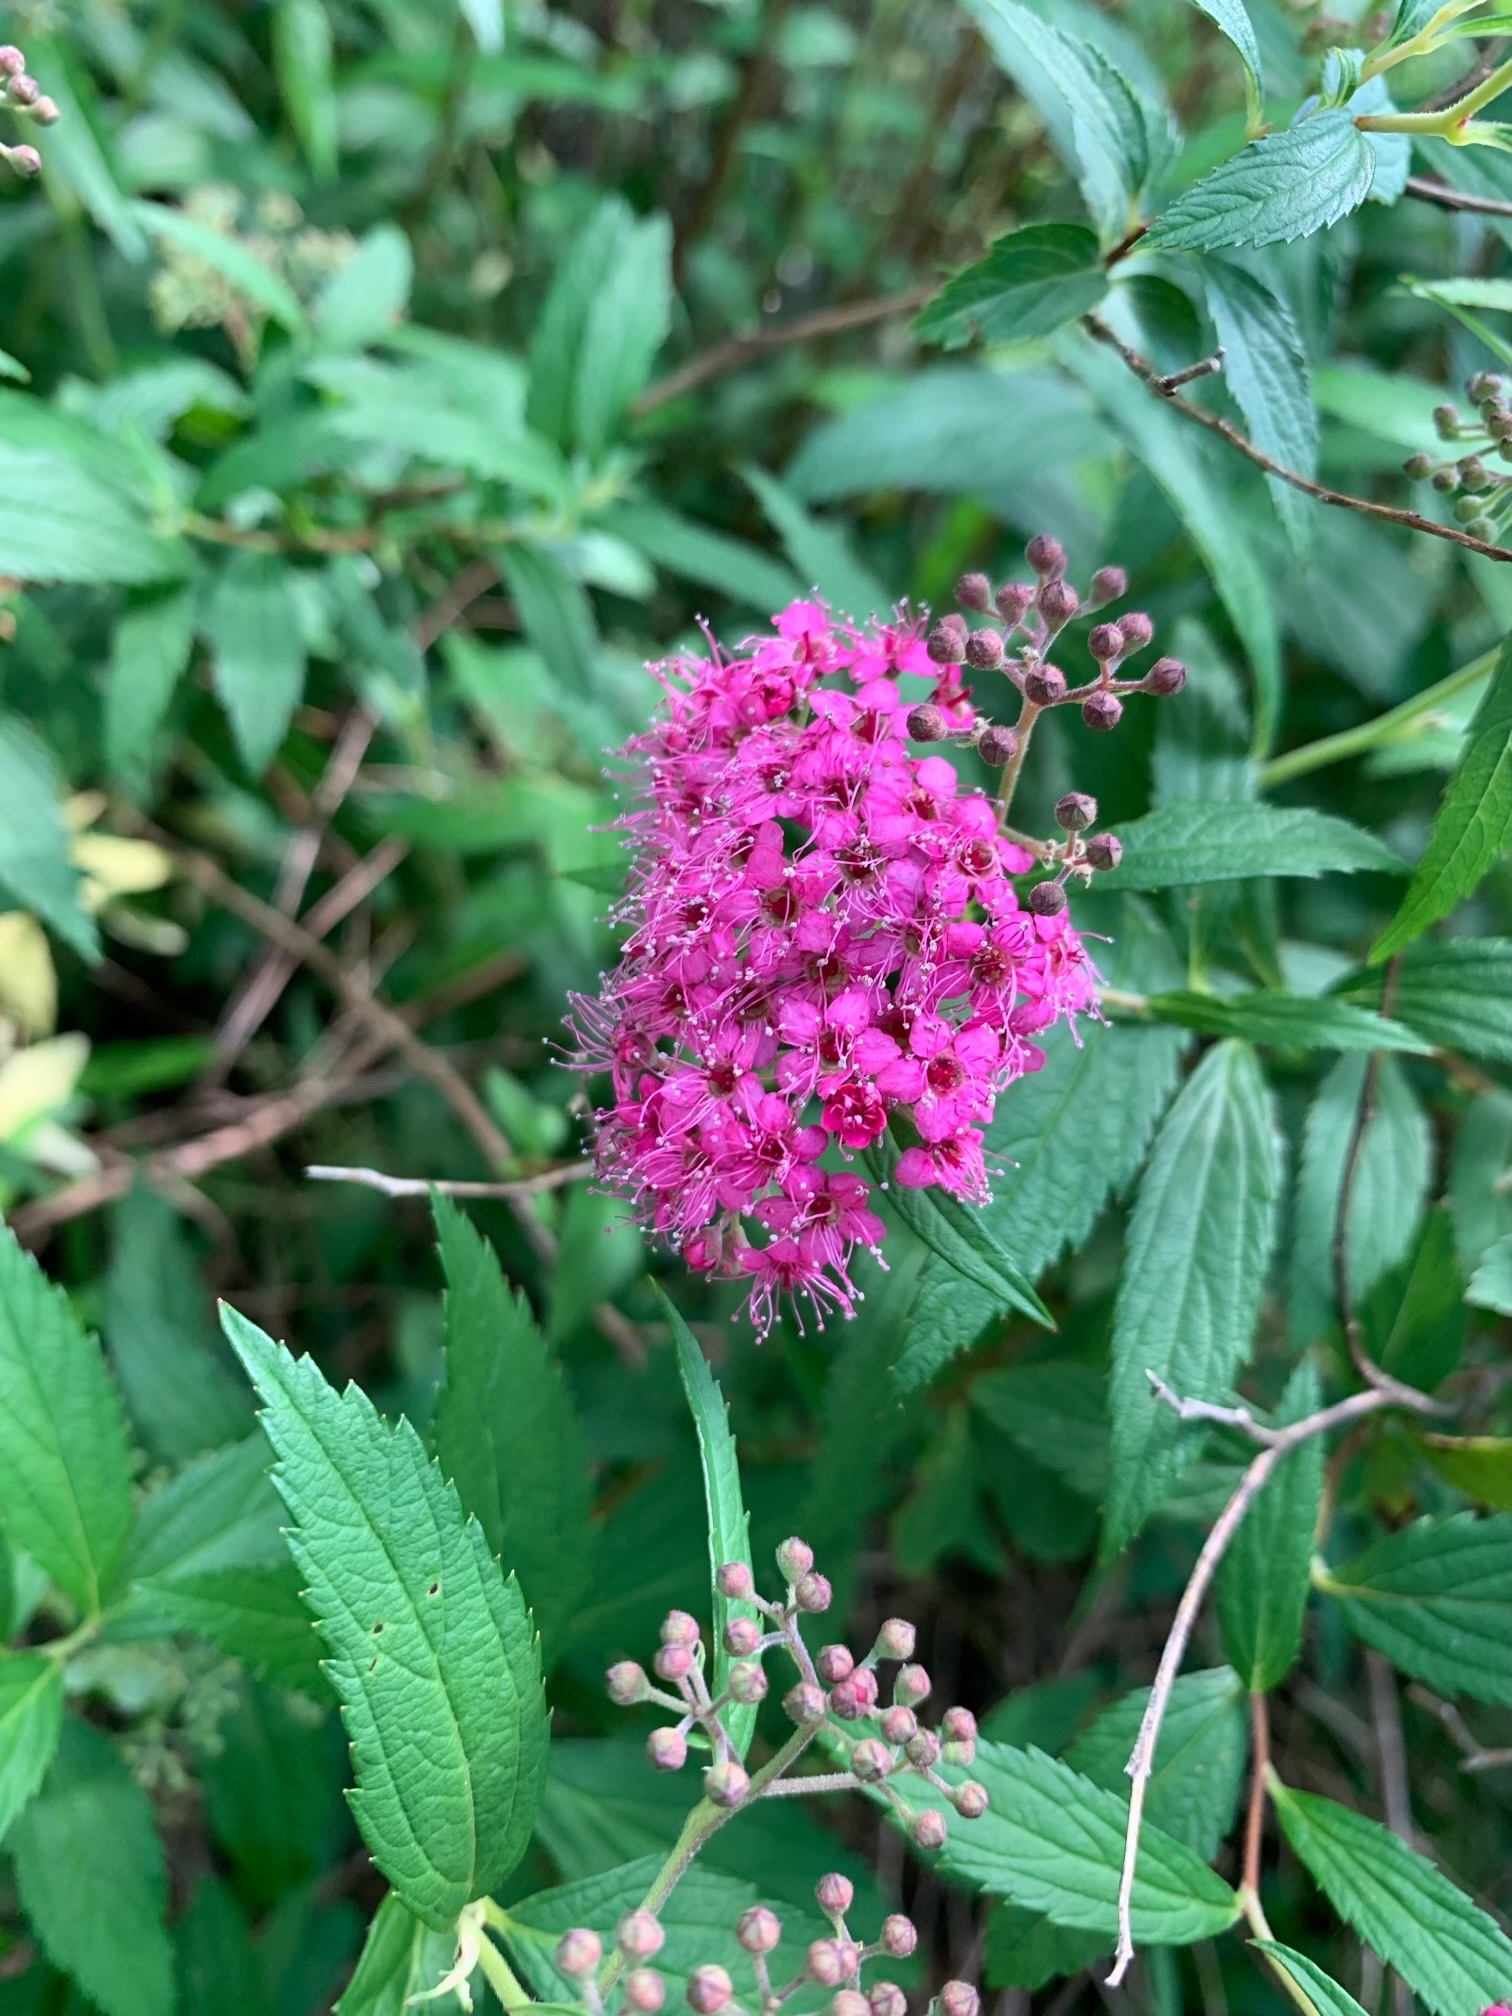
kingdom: Plantae
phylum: Tracheophyta
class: Magnoliopsida
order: Rosales
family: Rosaceae
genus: Spiraea
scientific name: Spiraea japonica
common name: Japanese spiraea
